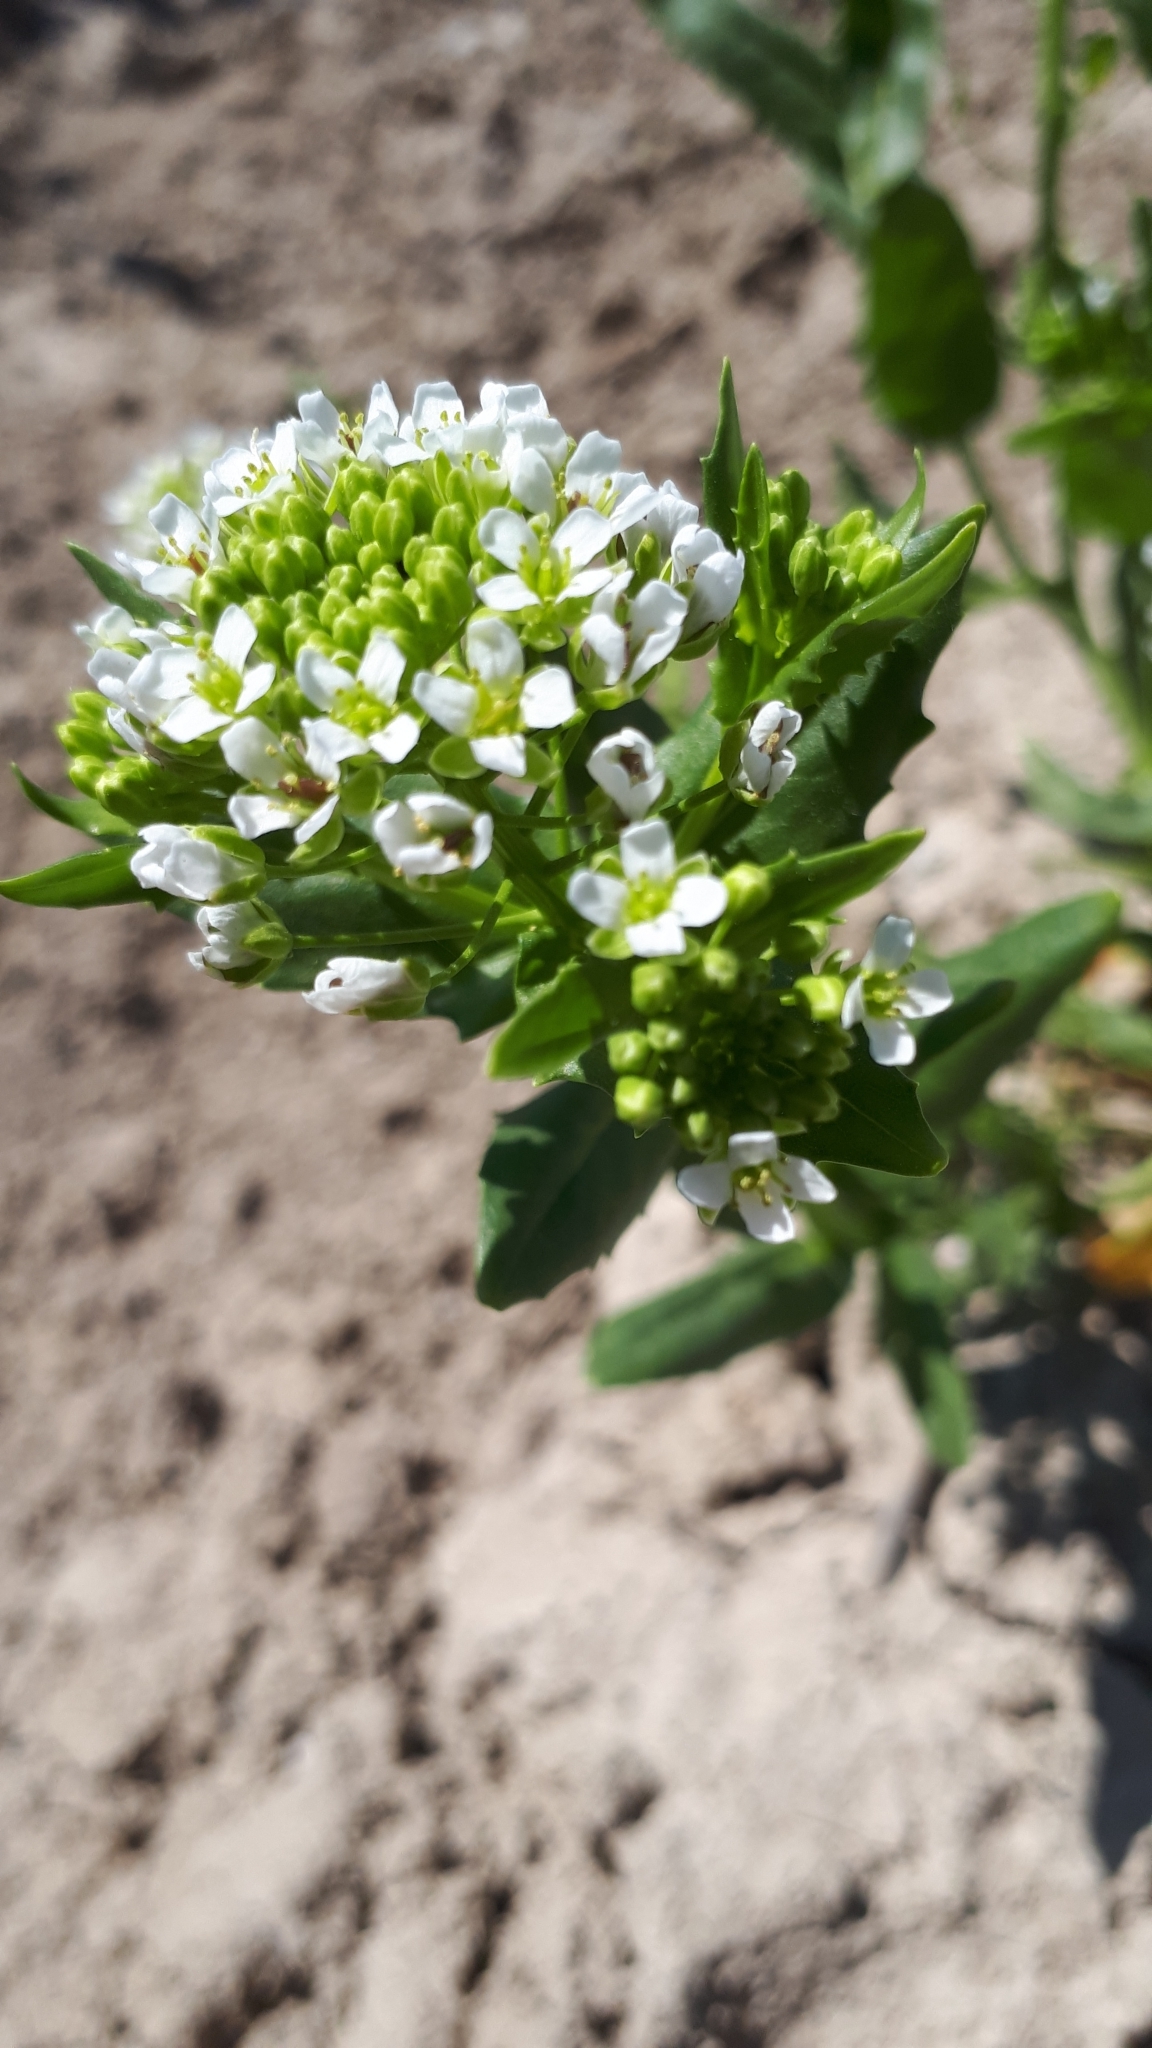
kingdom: Plantae
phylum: Tracheophyta
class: Magnoliopsida
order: Brassicales
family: Brassicaceae
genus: Thlaspi
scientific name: Thlaspi arvense
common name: Field pennycress
